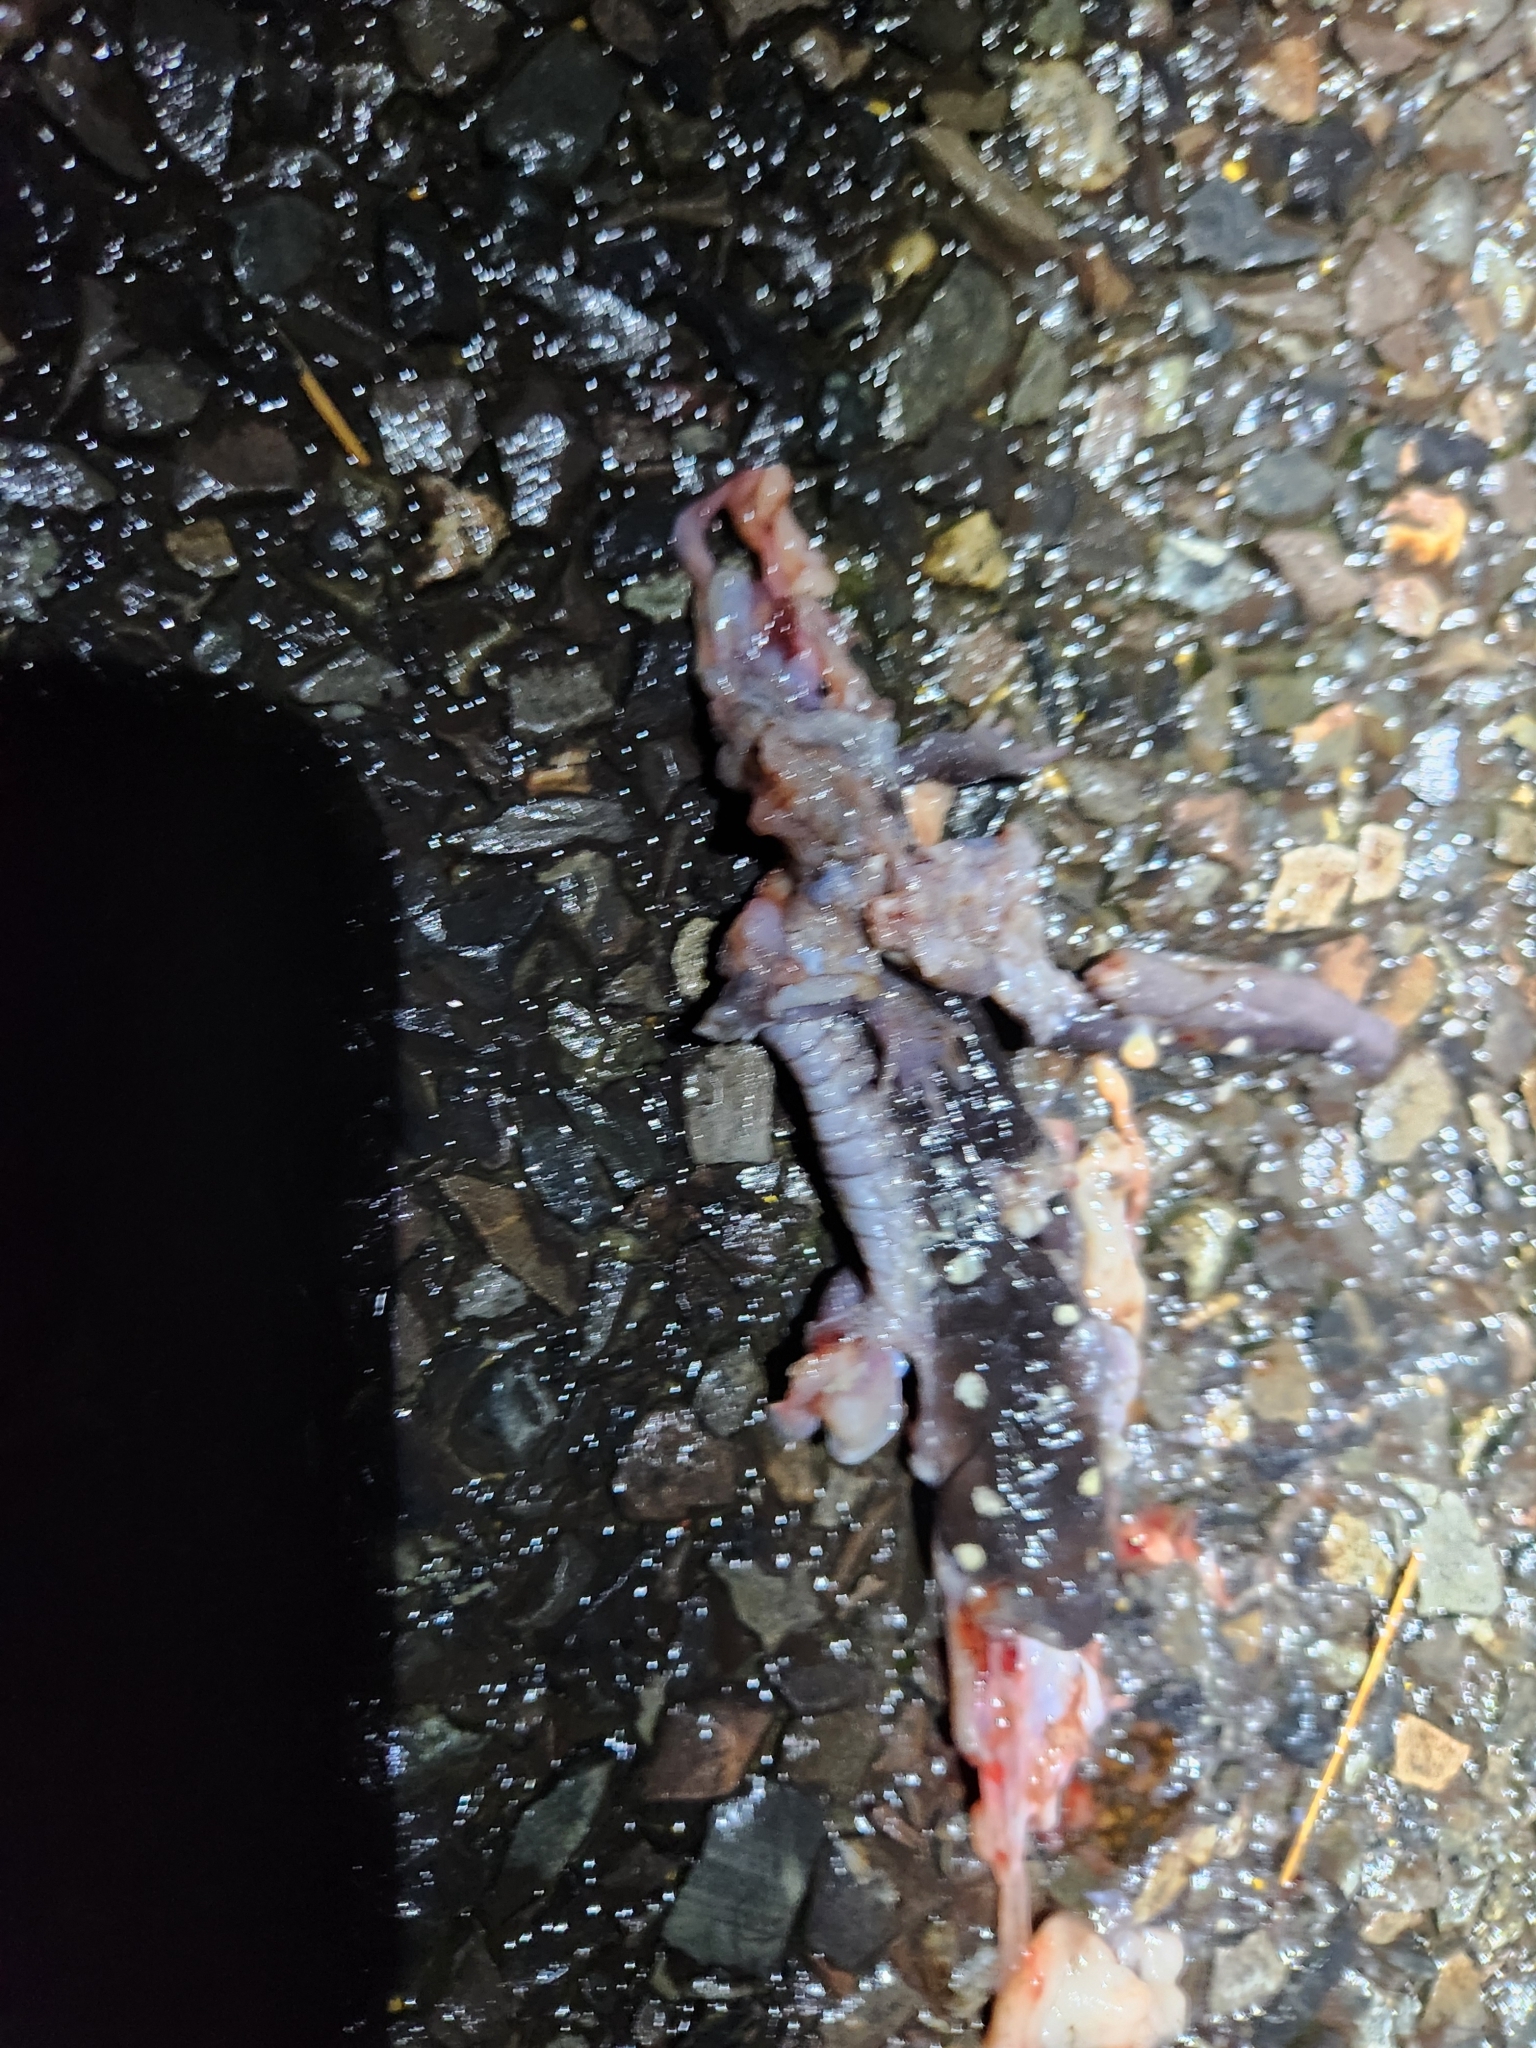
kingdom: Animalia
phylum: Chordata
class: Amphibia
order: Caudata
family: Ambystomatidae
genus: Ambystoma
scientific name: Ambystoma maculatum
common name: Spotted salamander
